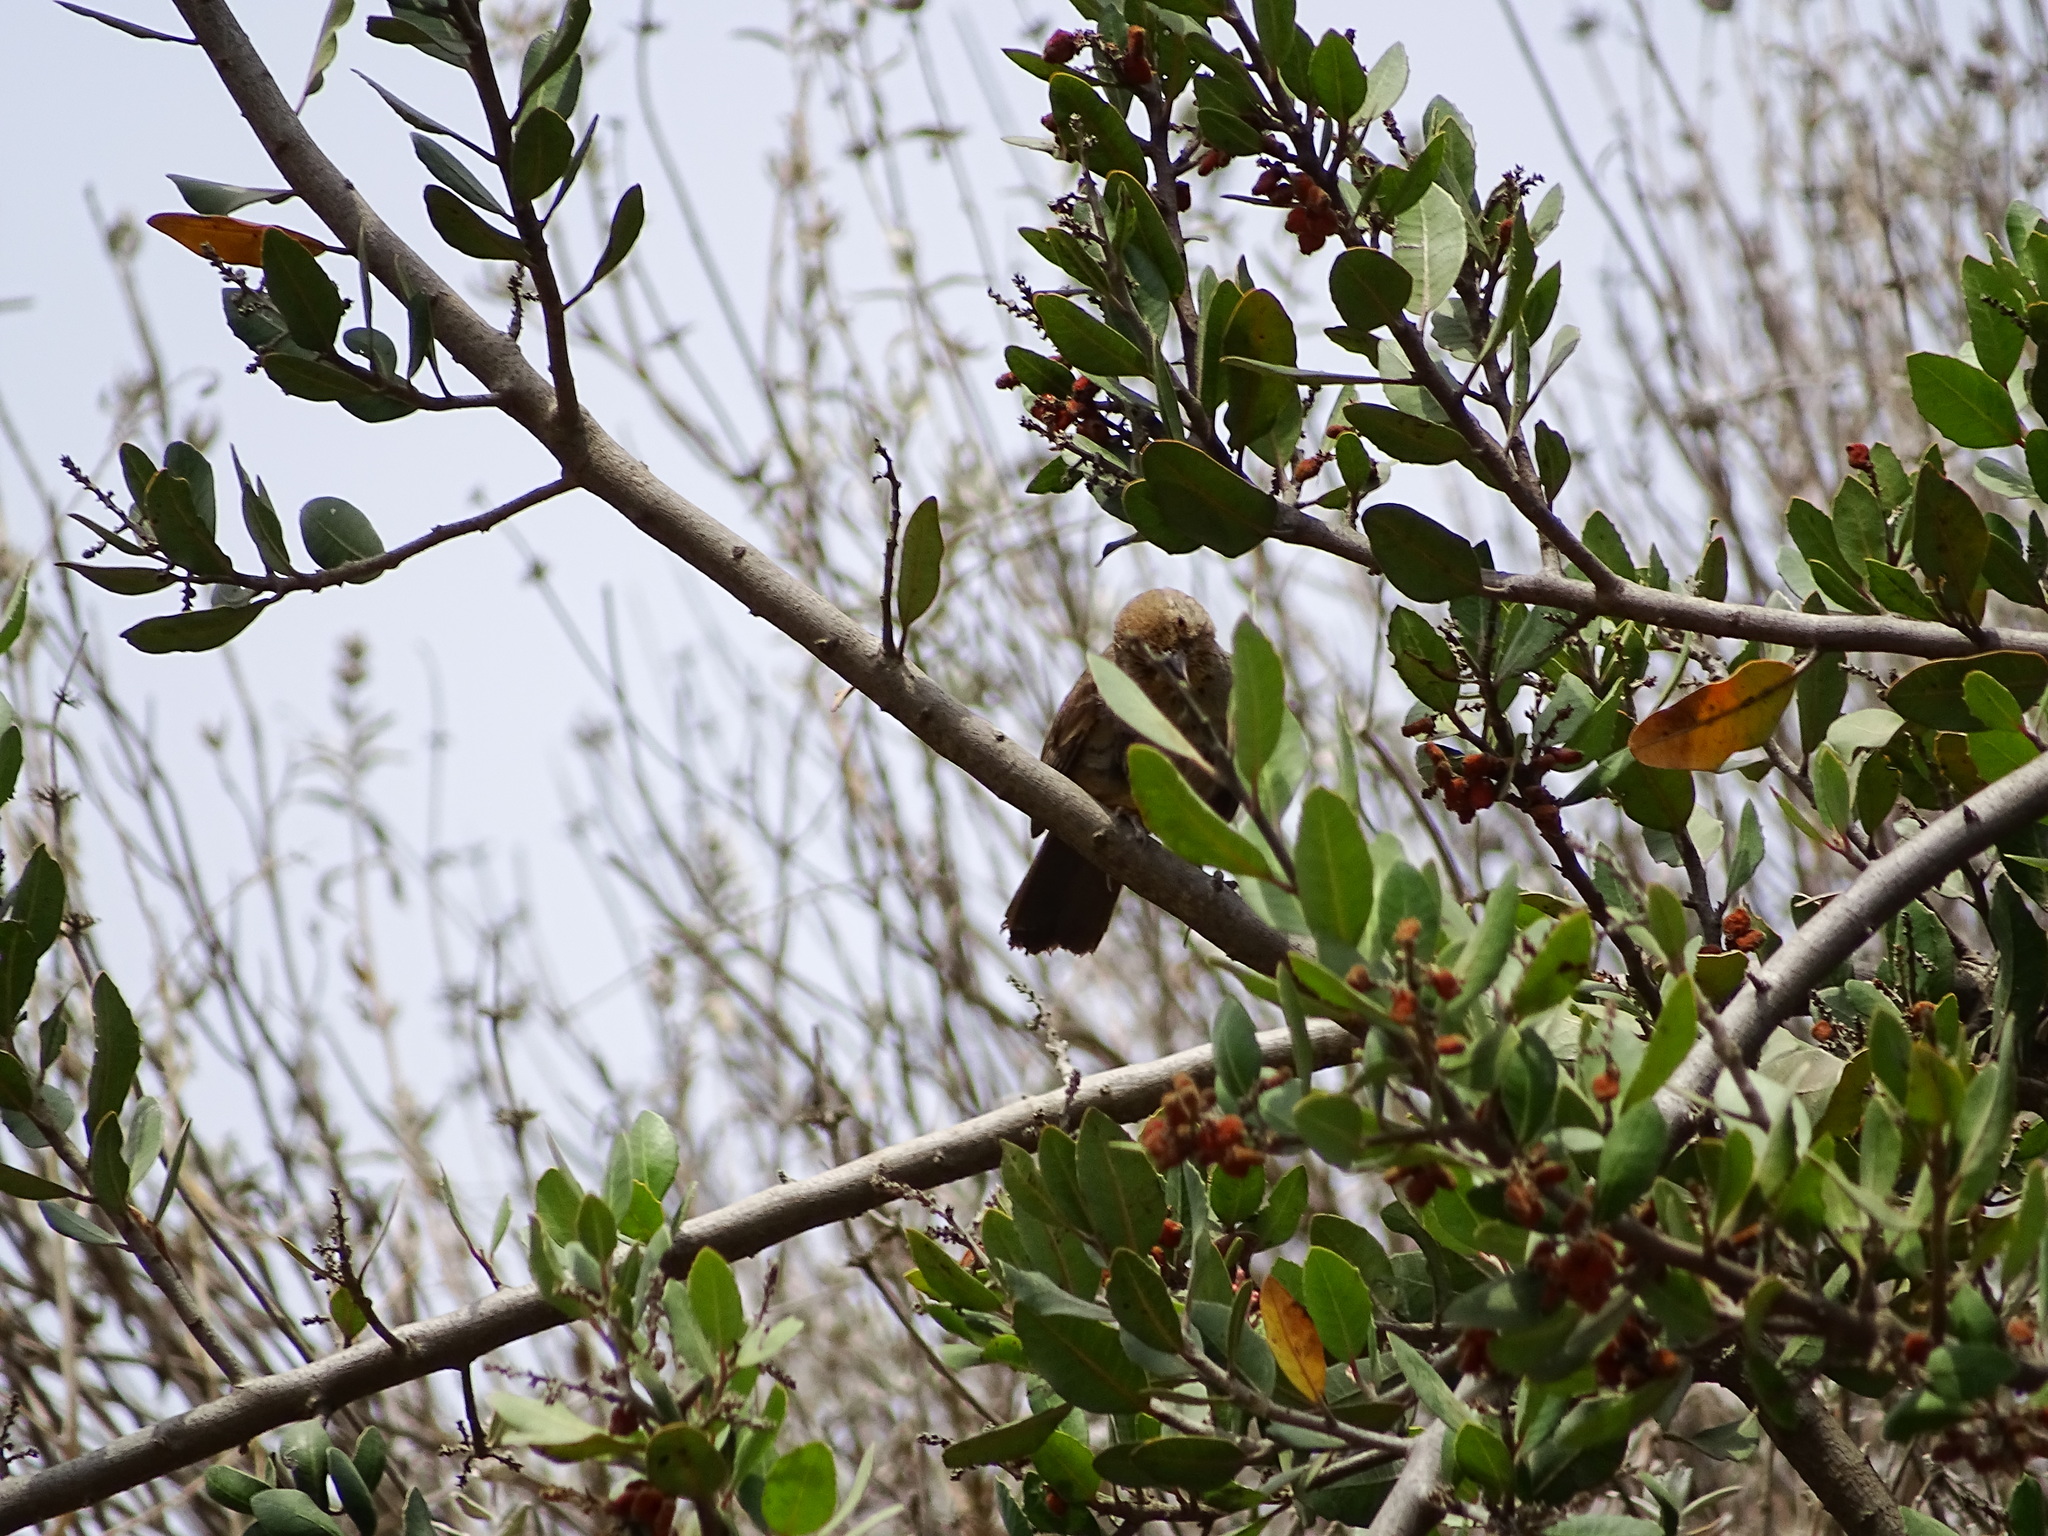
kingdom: Animalia
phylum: Chordata
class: Aves
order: Passeriformes
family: Passerellidae
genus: Melozone
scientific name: Melozone crissalis
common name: California towhee
